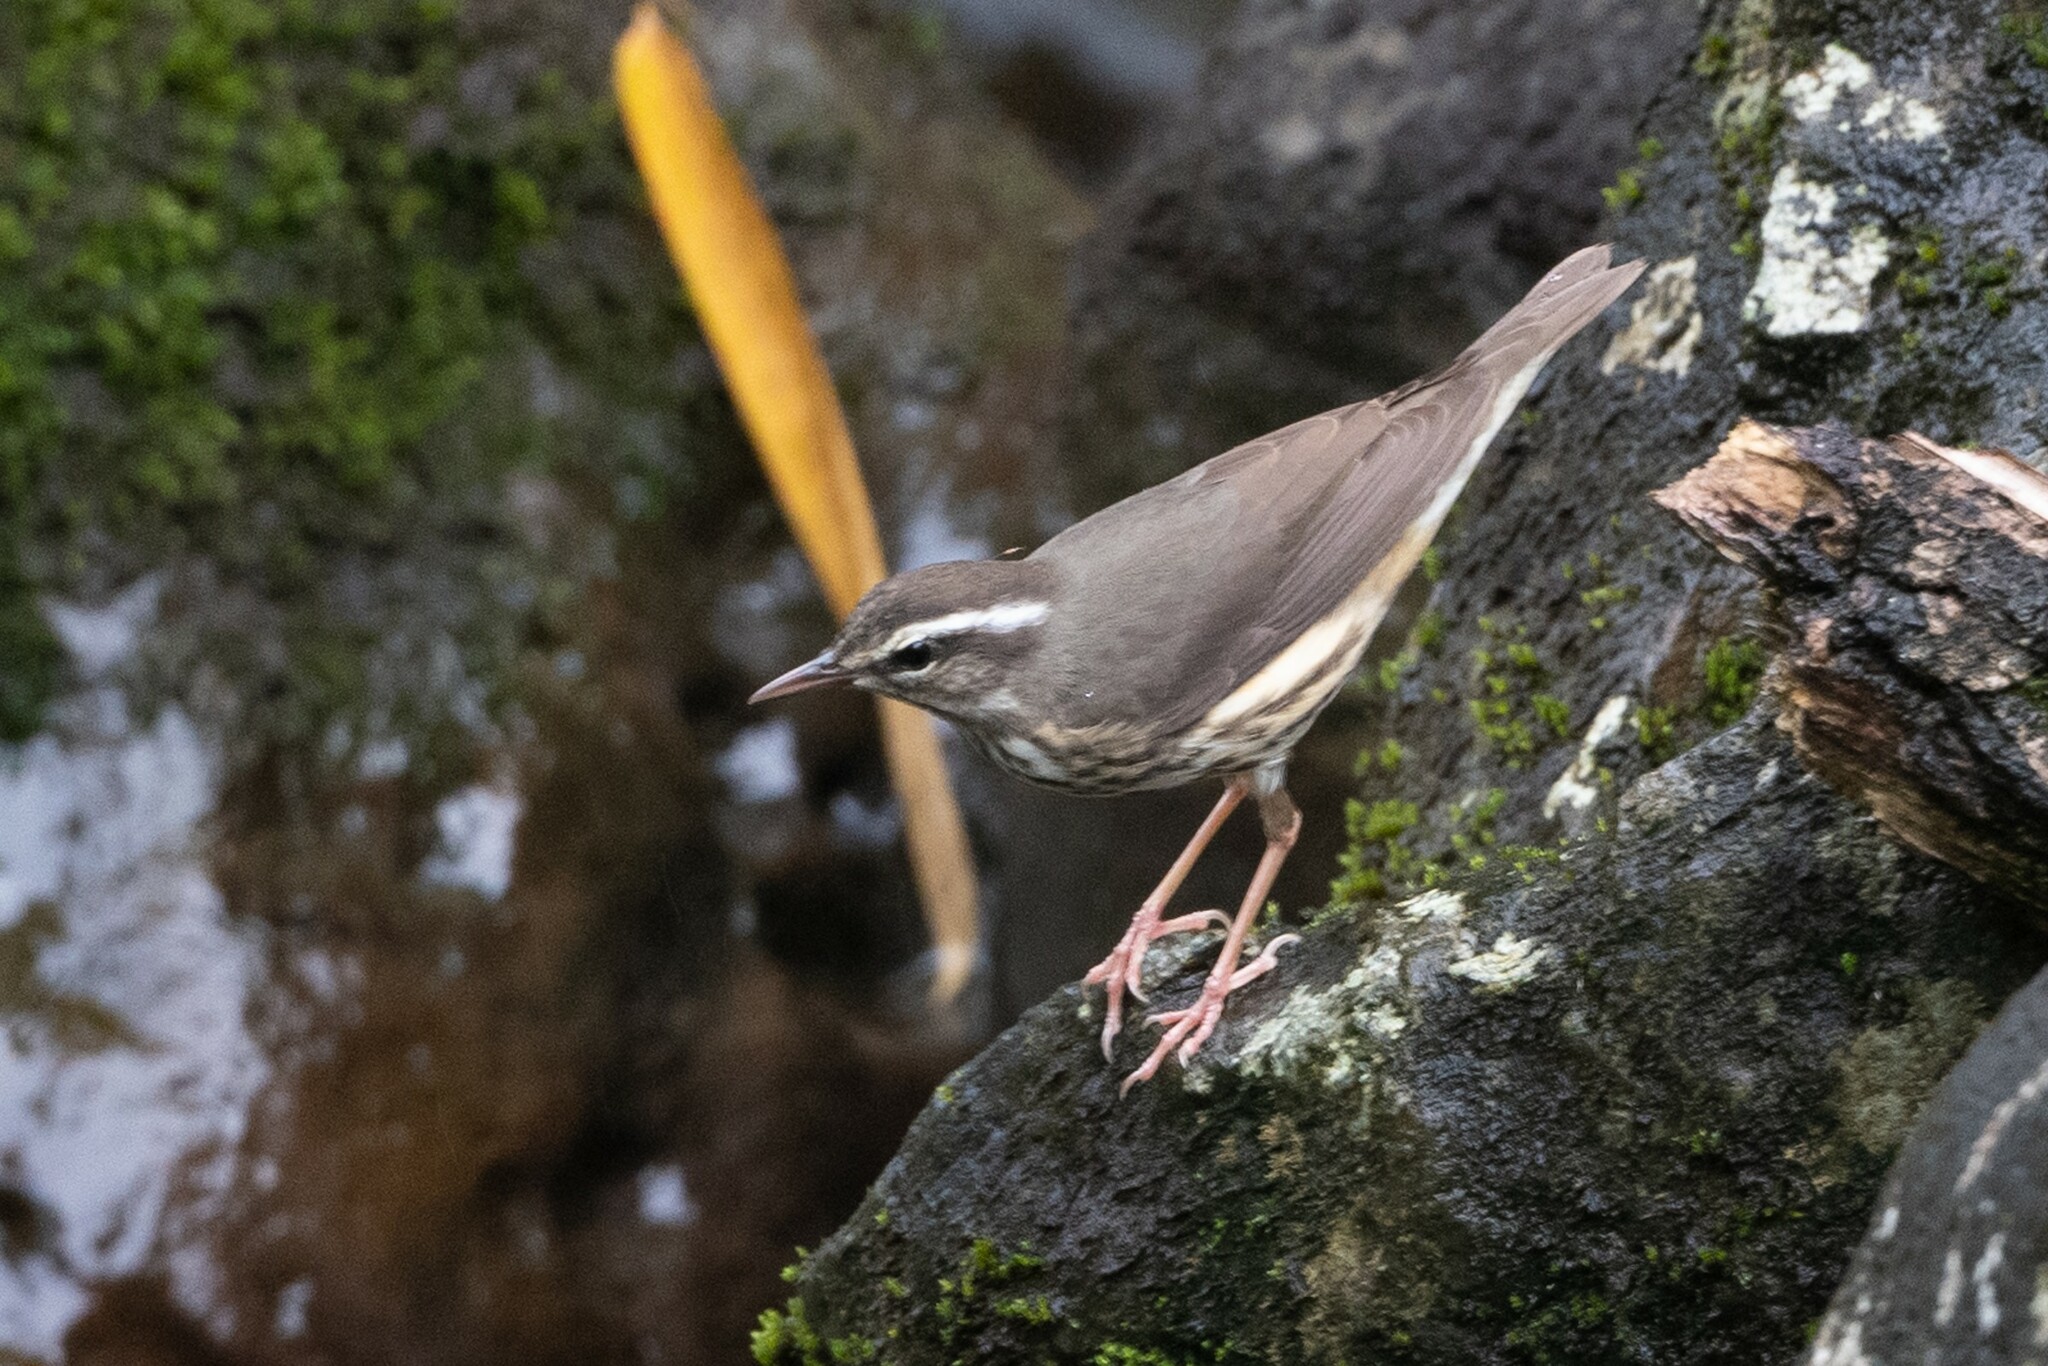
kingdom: Animalia
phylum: Chordata
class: Aves
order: Passeriformes
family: Parulidae
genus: Parkesia
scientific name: Parkesia motacilla
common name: Louisiana waterthrush
